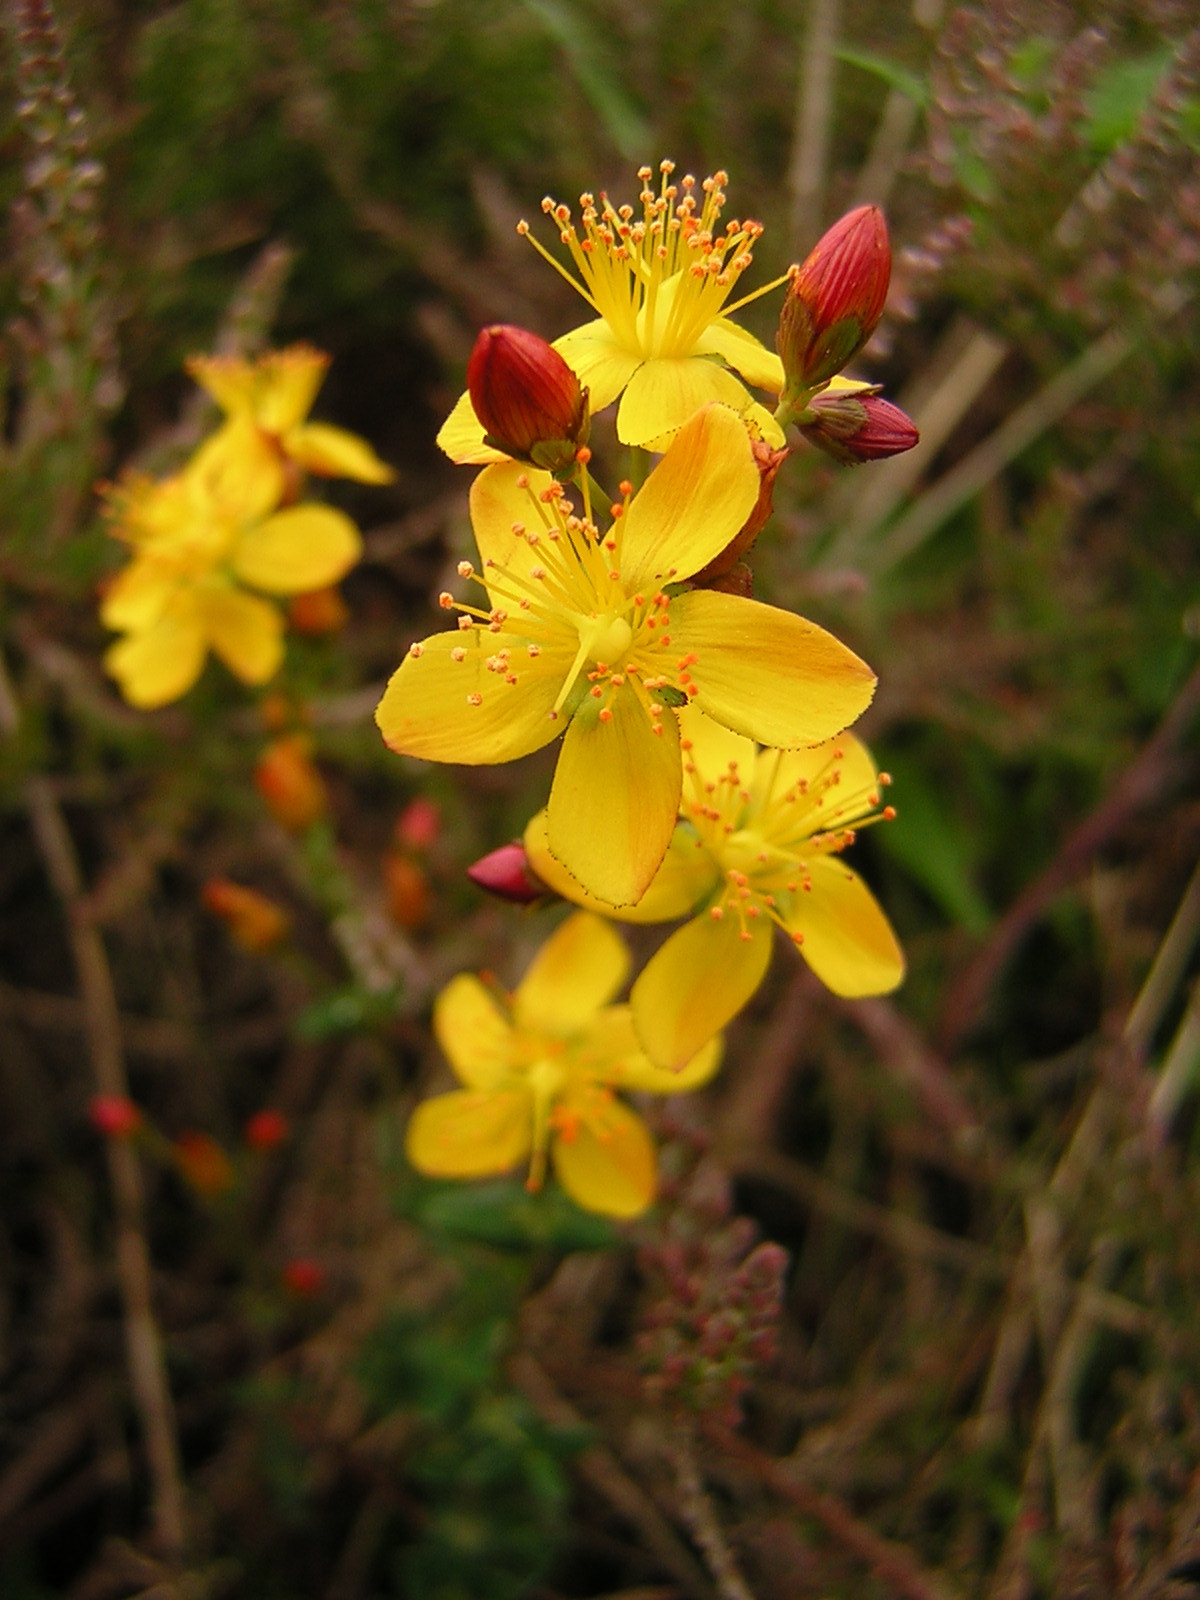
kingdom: Plantae
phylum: Tracheophyta
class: Magnoliopsida
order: Malpighiales
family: Hypericaceae
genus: Hypericum
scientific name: Hypericum pulchrum
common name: Slender st. john's-wort
